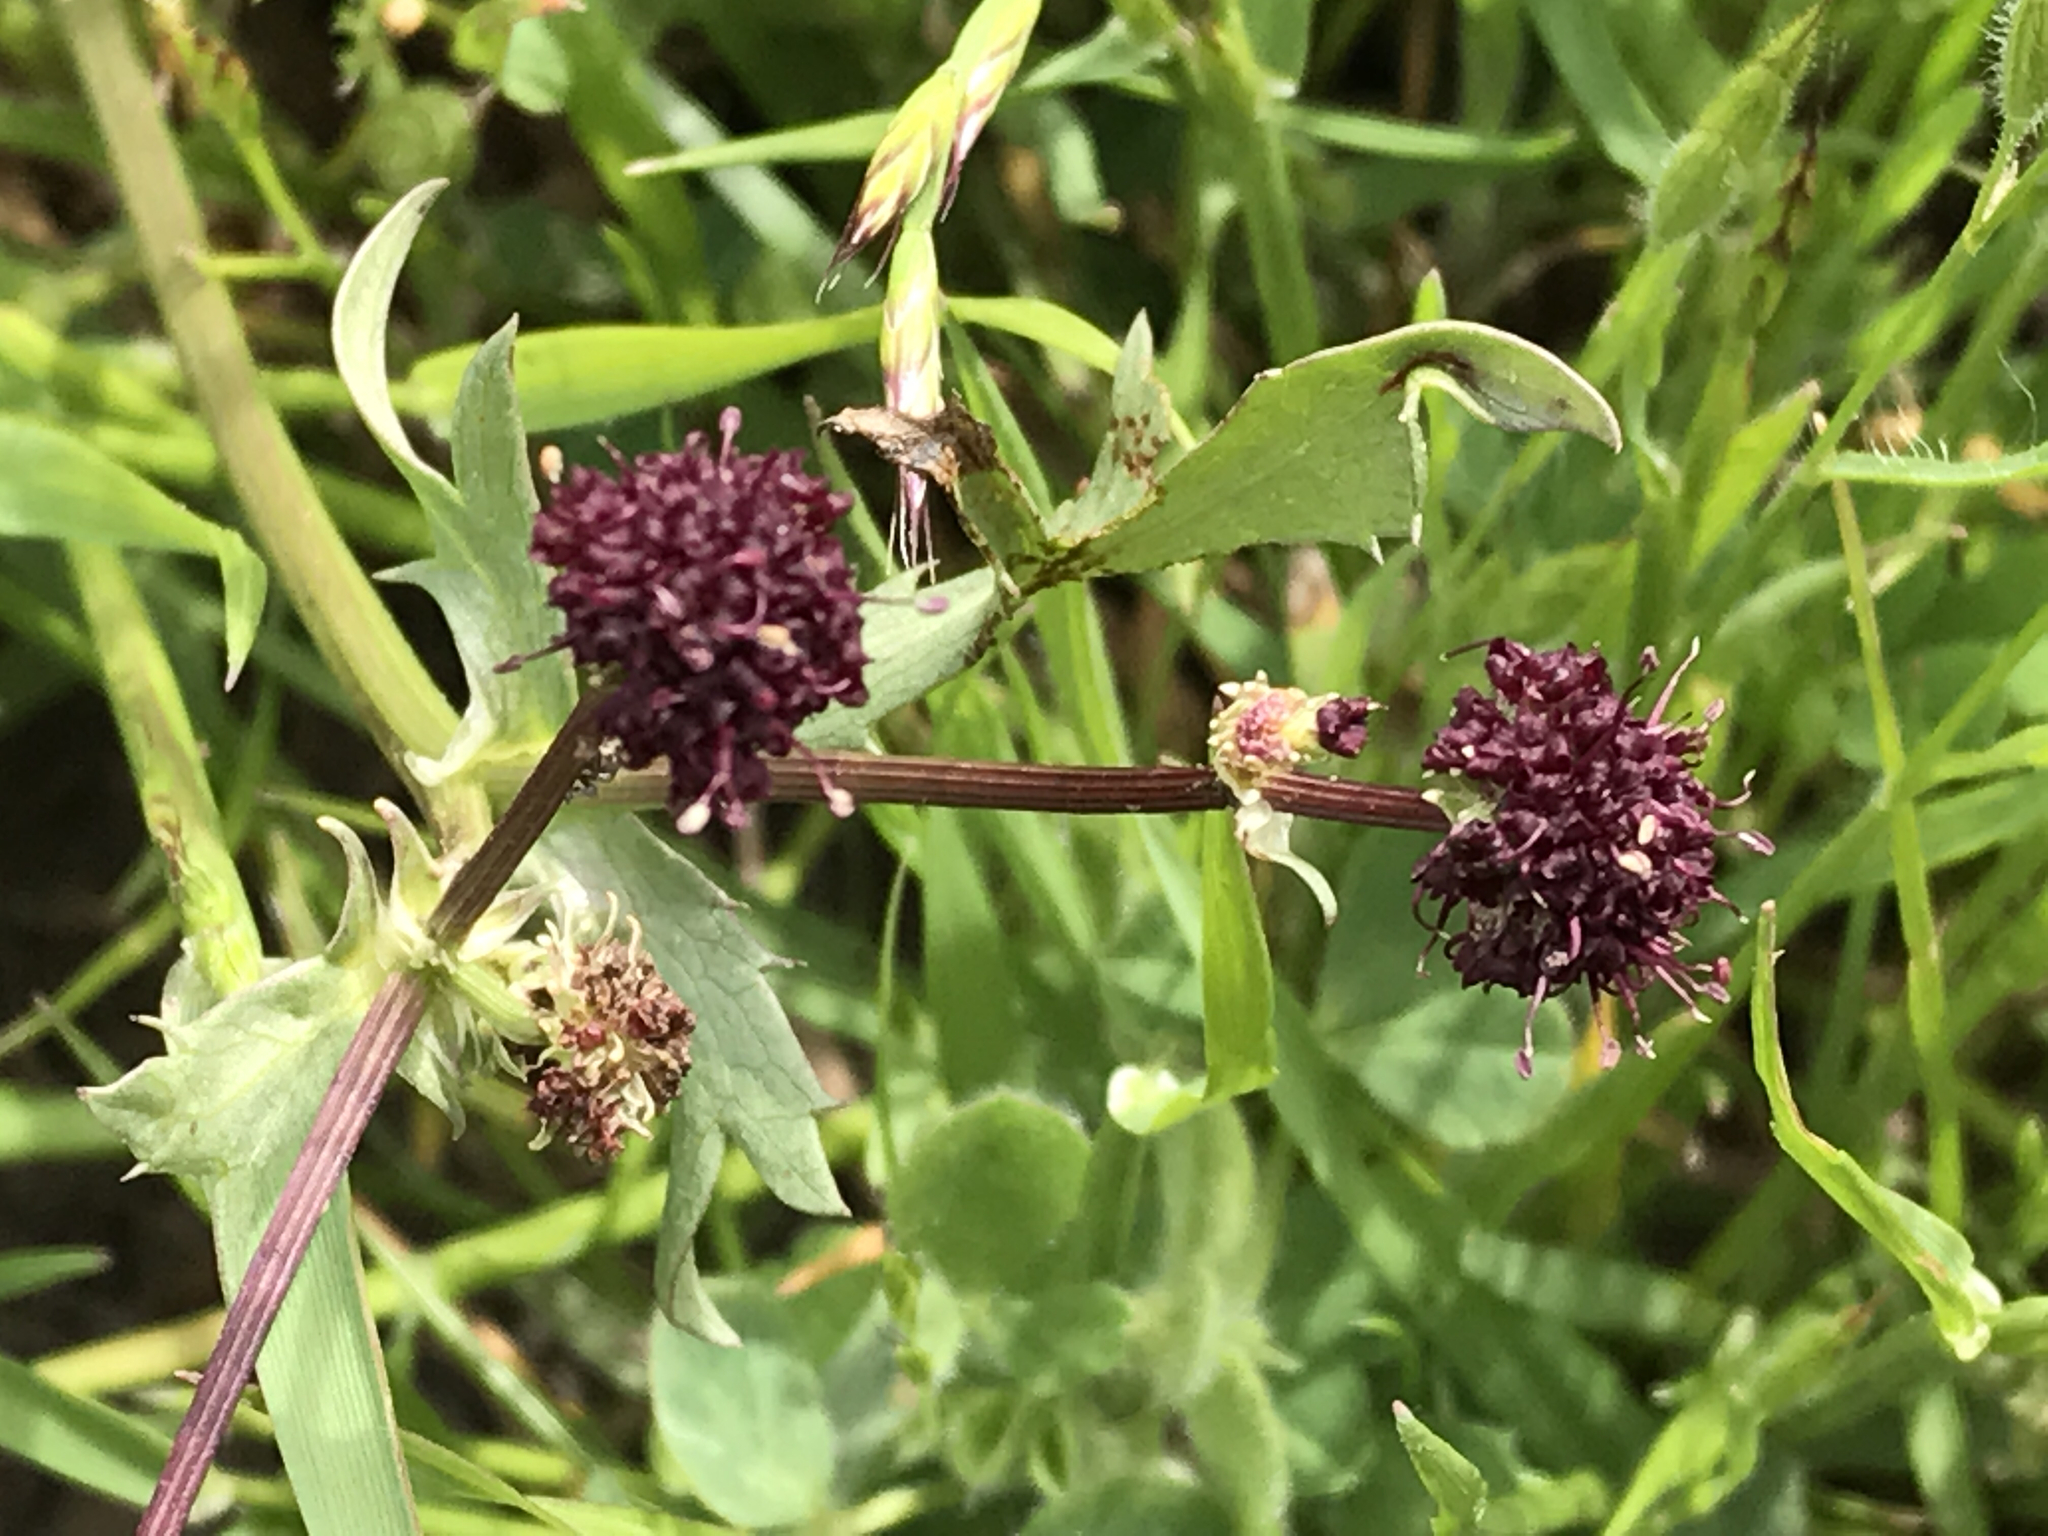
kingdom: Plantae
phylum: Tracheophyta
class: Magnoliopsida
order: Apiales
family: Apiaceae
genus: Sanicula
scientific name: Sanicula bipinnatifida
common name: Shoe-buttons
